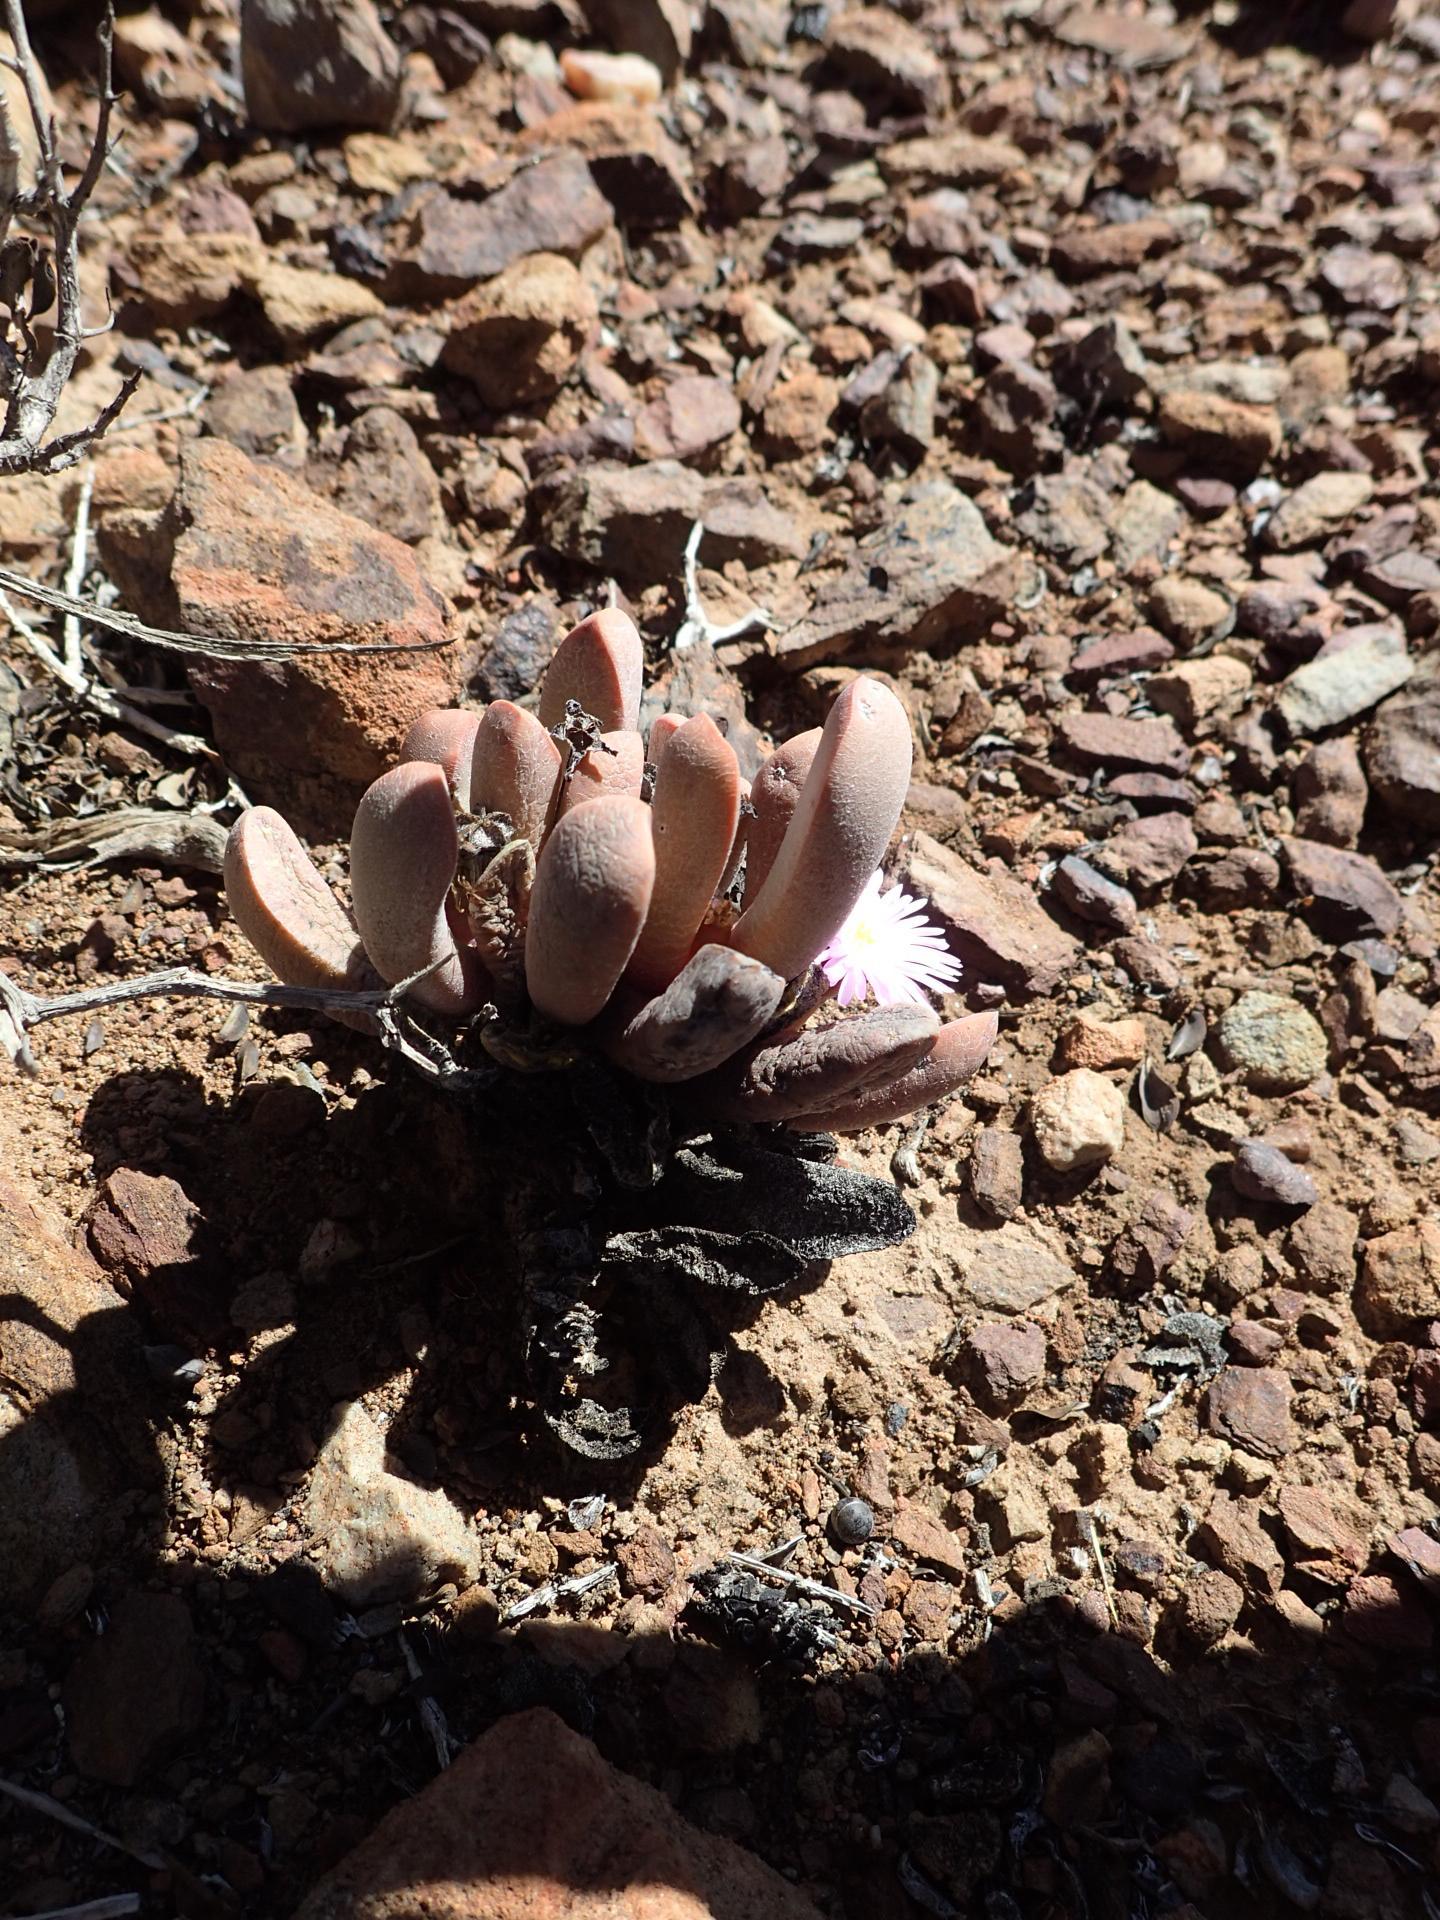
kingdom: Plantae
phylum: Tracheophyta
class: Magnoliopsida
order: Caryophyllales
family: Aizoaceae
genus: Cerochlamys
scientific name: Cerochlamys pachyphylla
